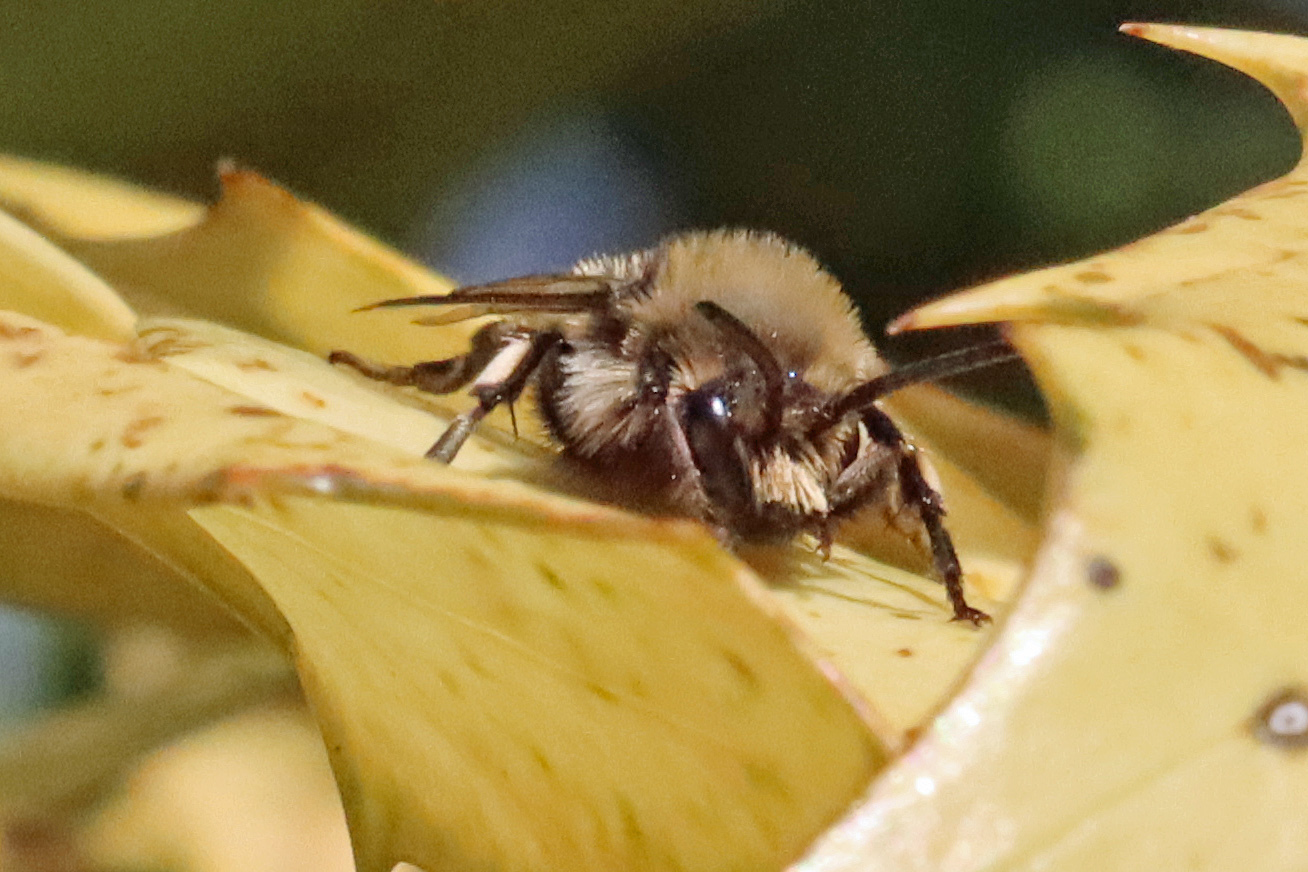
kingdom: Animalia
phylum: Arthropoda
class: Insecta
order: Hymenoptera
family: Apidae
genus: Melecta
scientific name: Melecta albifrons
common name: Common mourning bee
